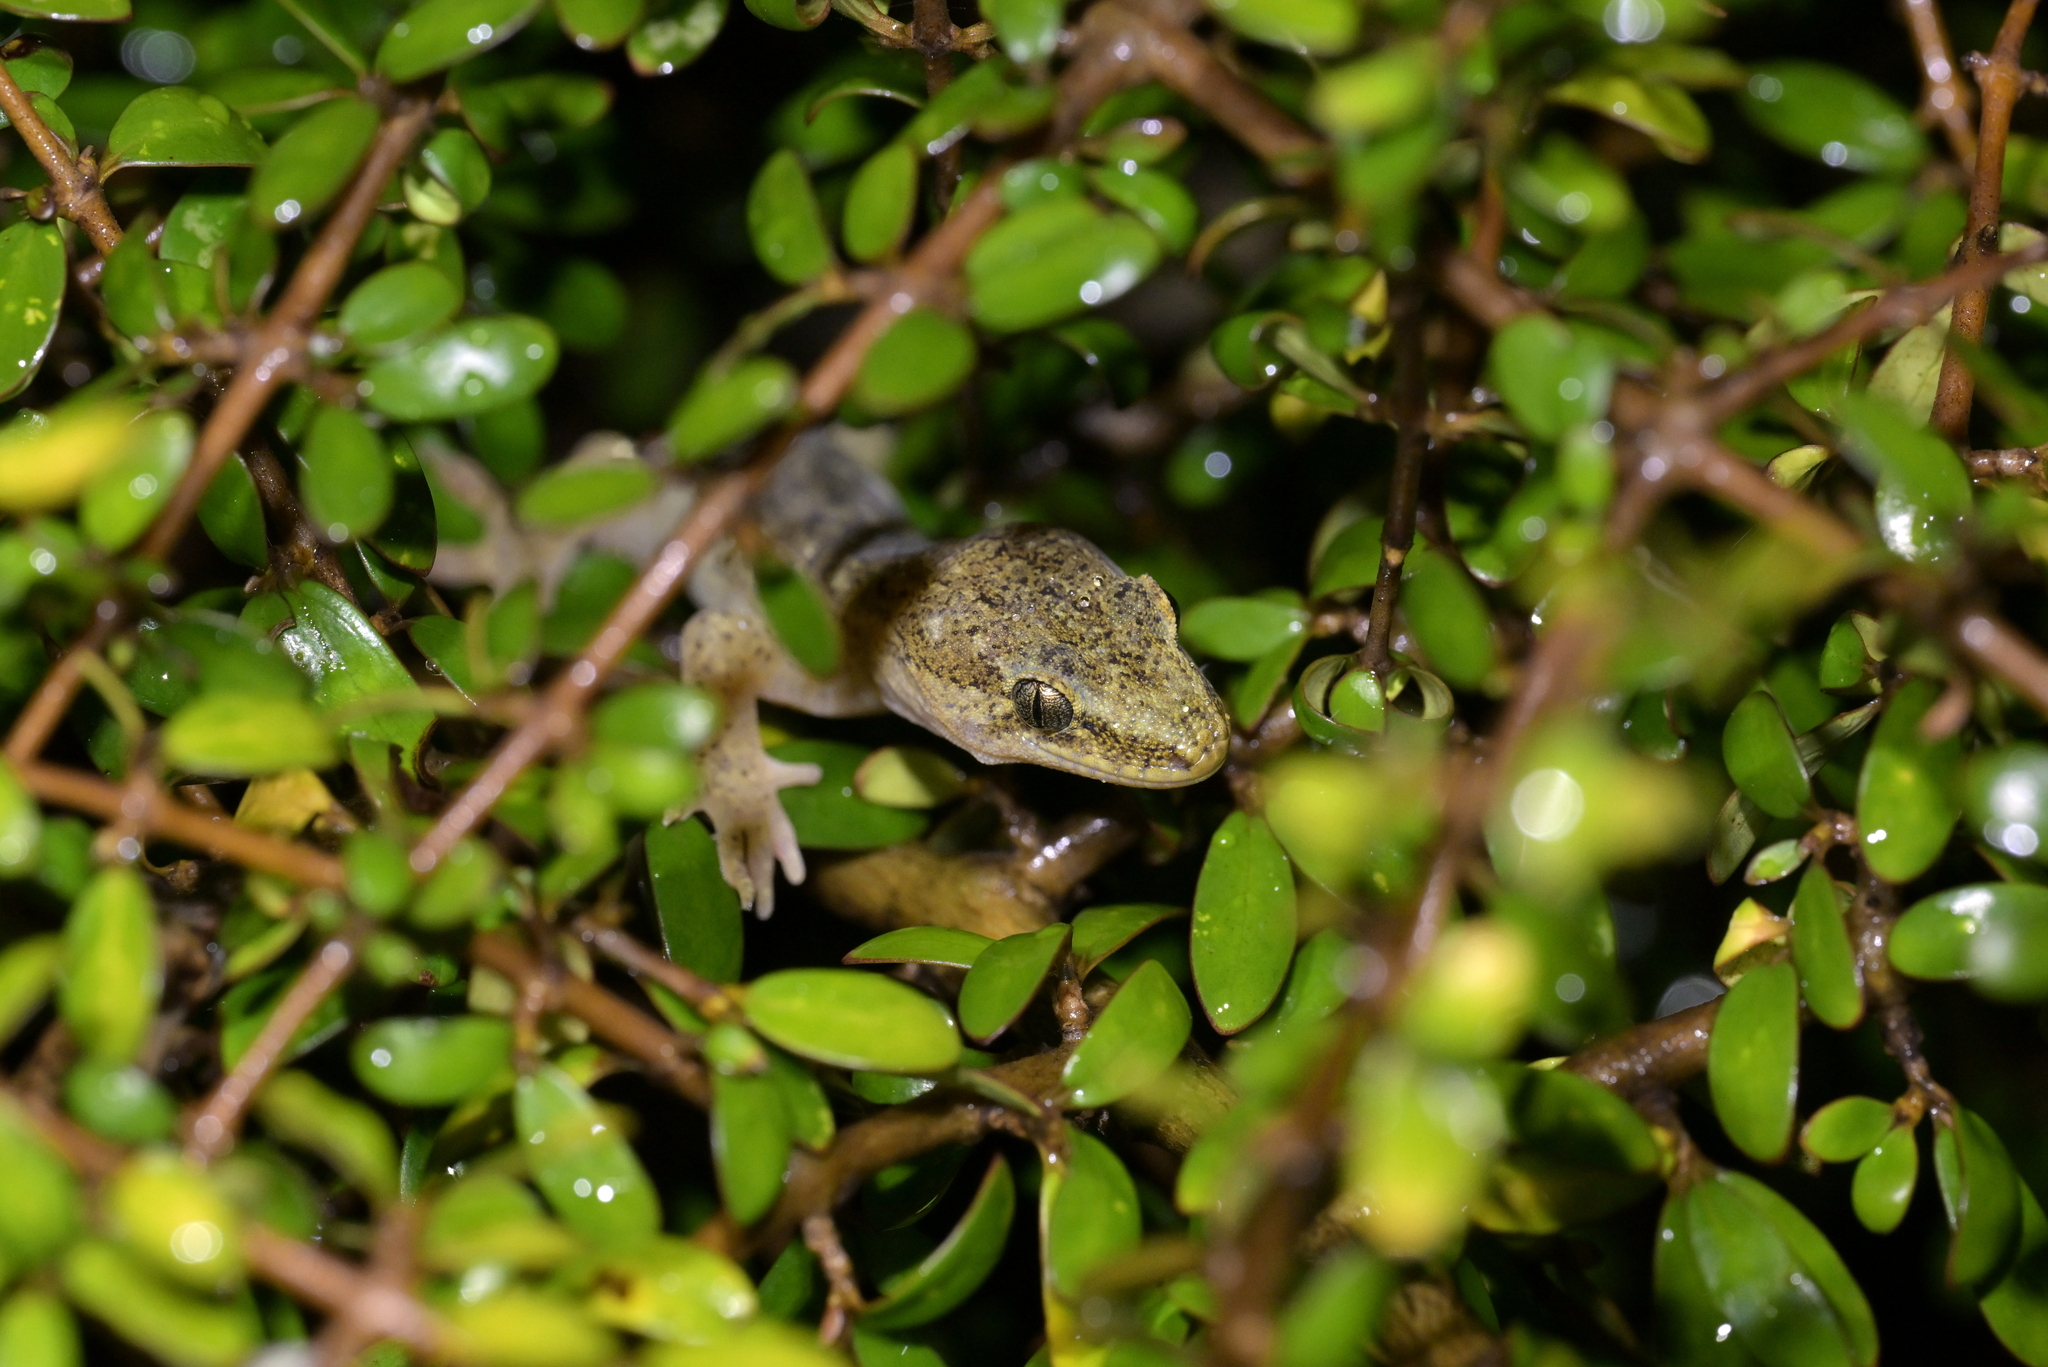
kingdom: Animalia
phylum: Chordata
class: Squamata
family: Diplodactylidae
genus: Woodworthia
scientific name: Woodworthia maculata
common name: Raukawa gecko
